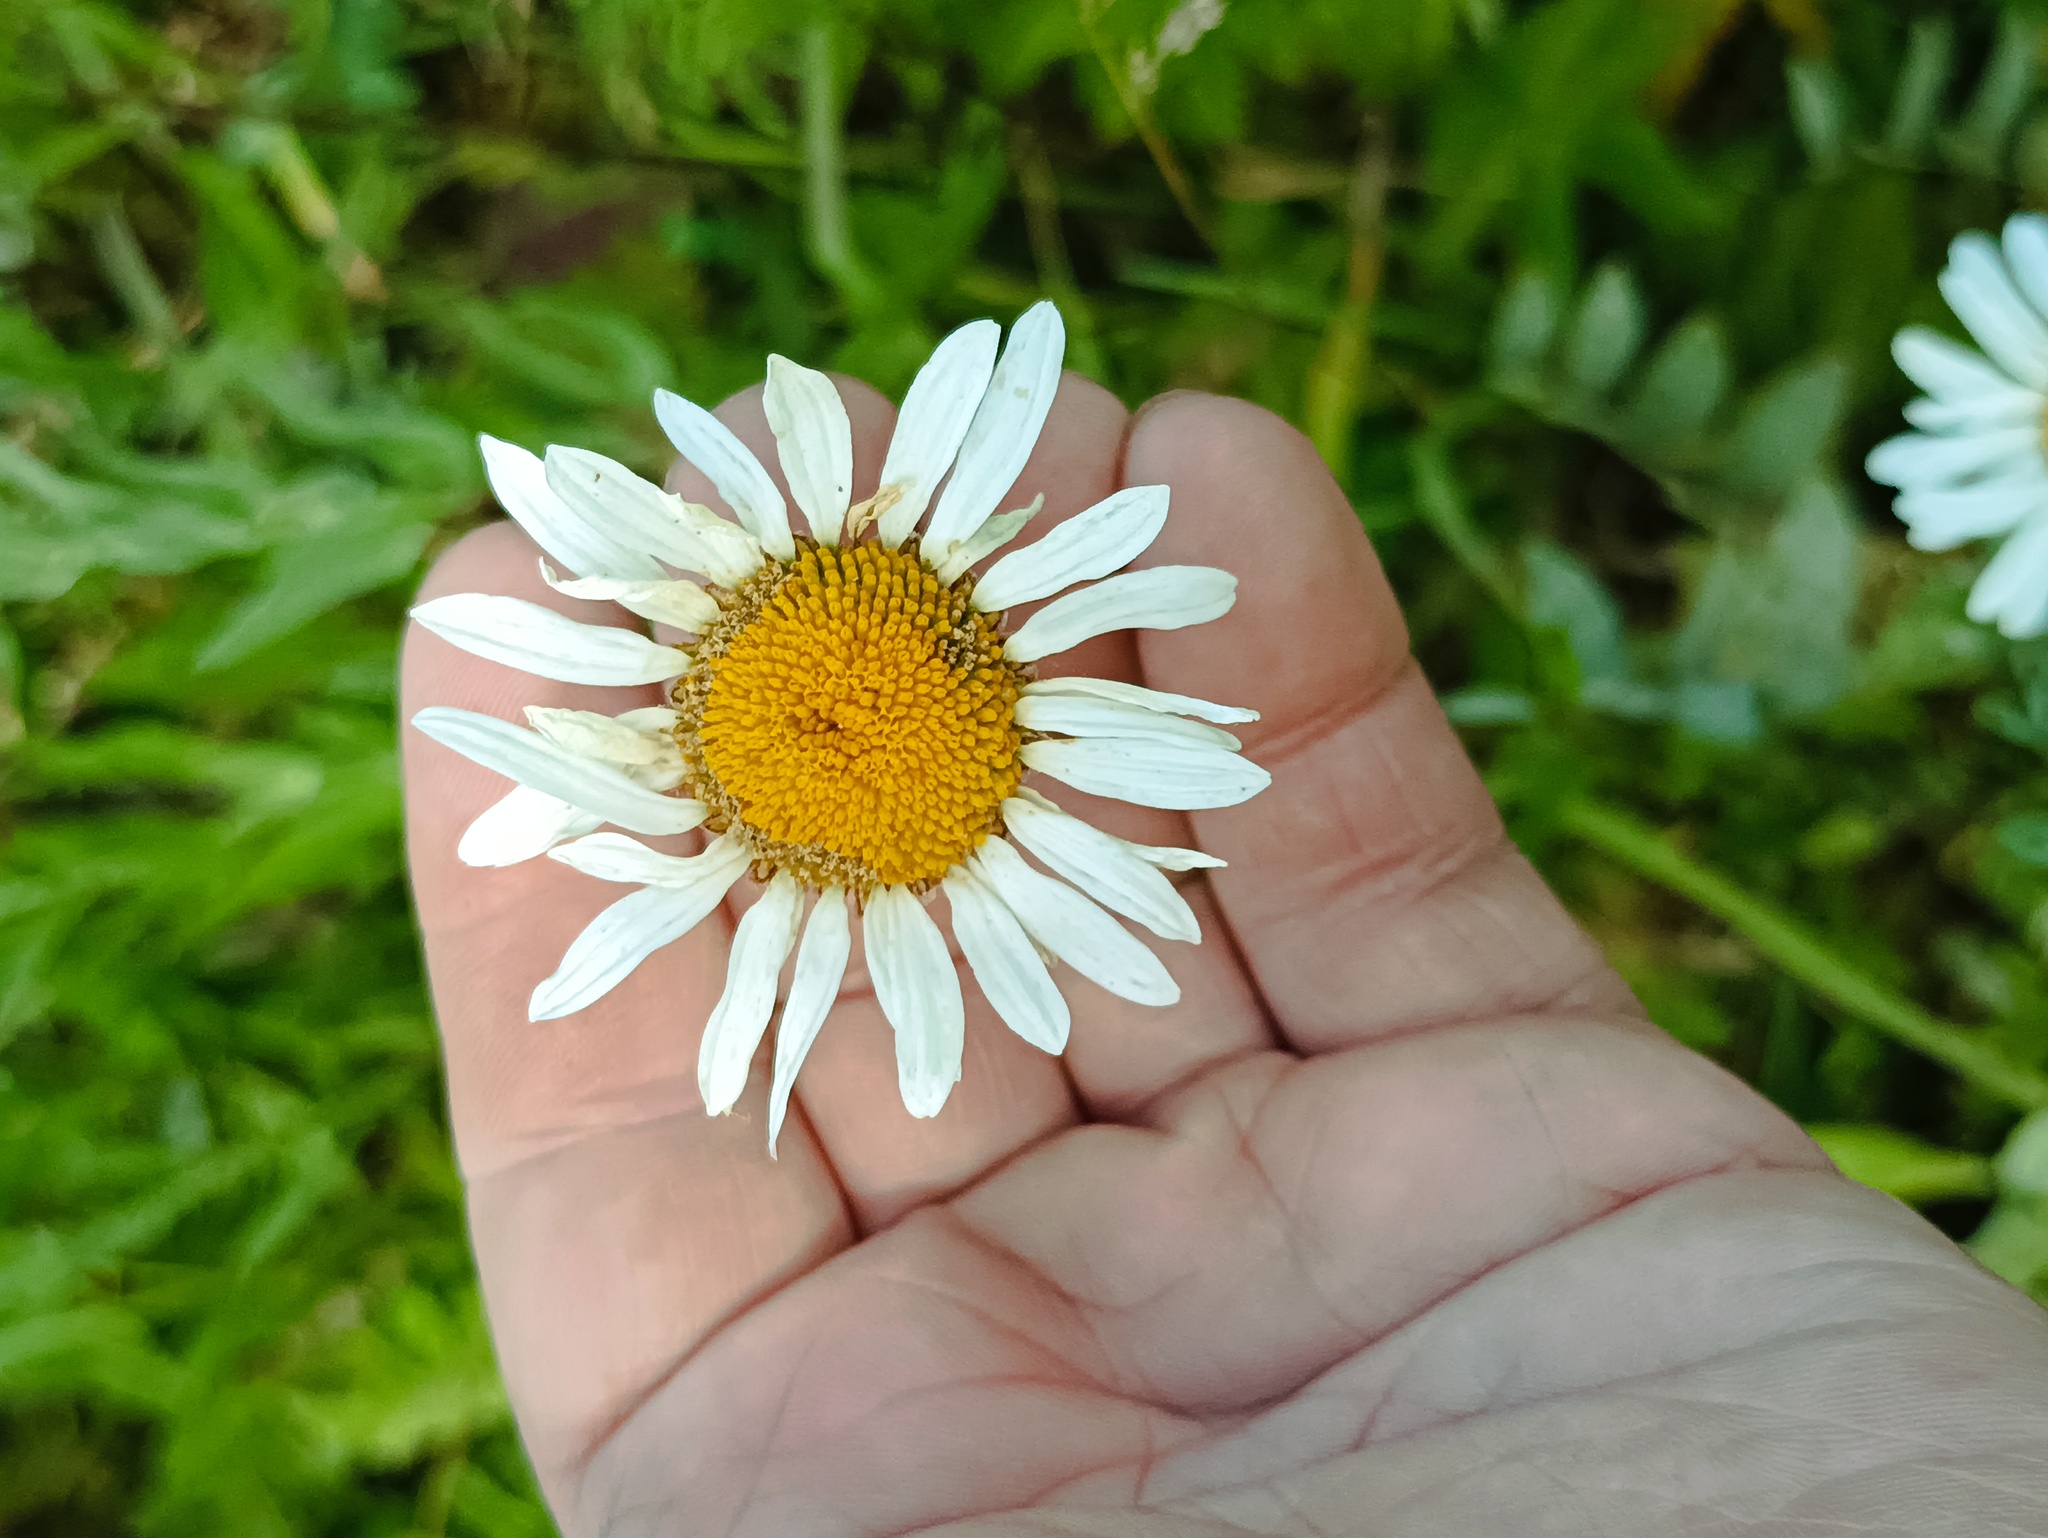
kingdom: Plantae
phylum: Tracheophyta
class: Magnoliopsida
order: Asterales
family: Asteraceae
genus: Leucanthemum
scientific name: Leucanthemum vulgare
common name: Oxeye daisy
